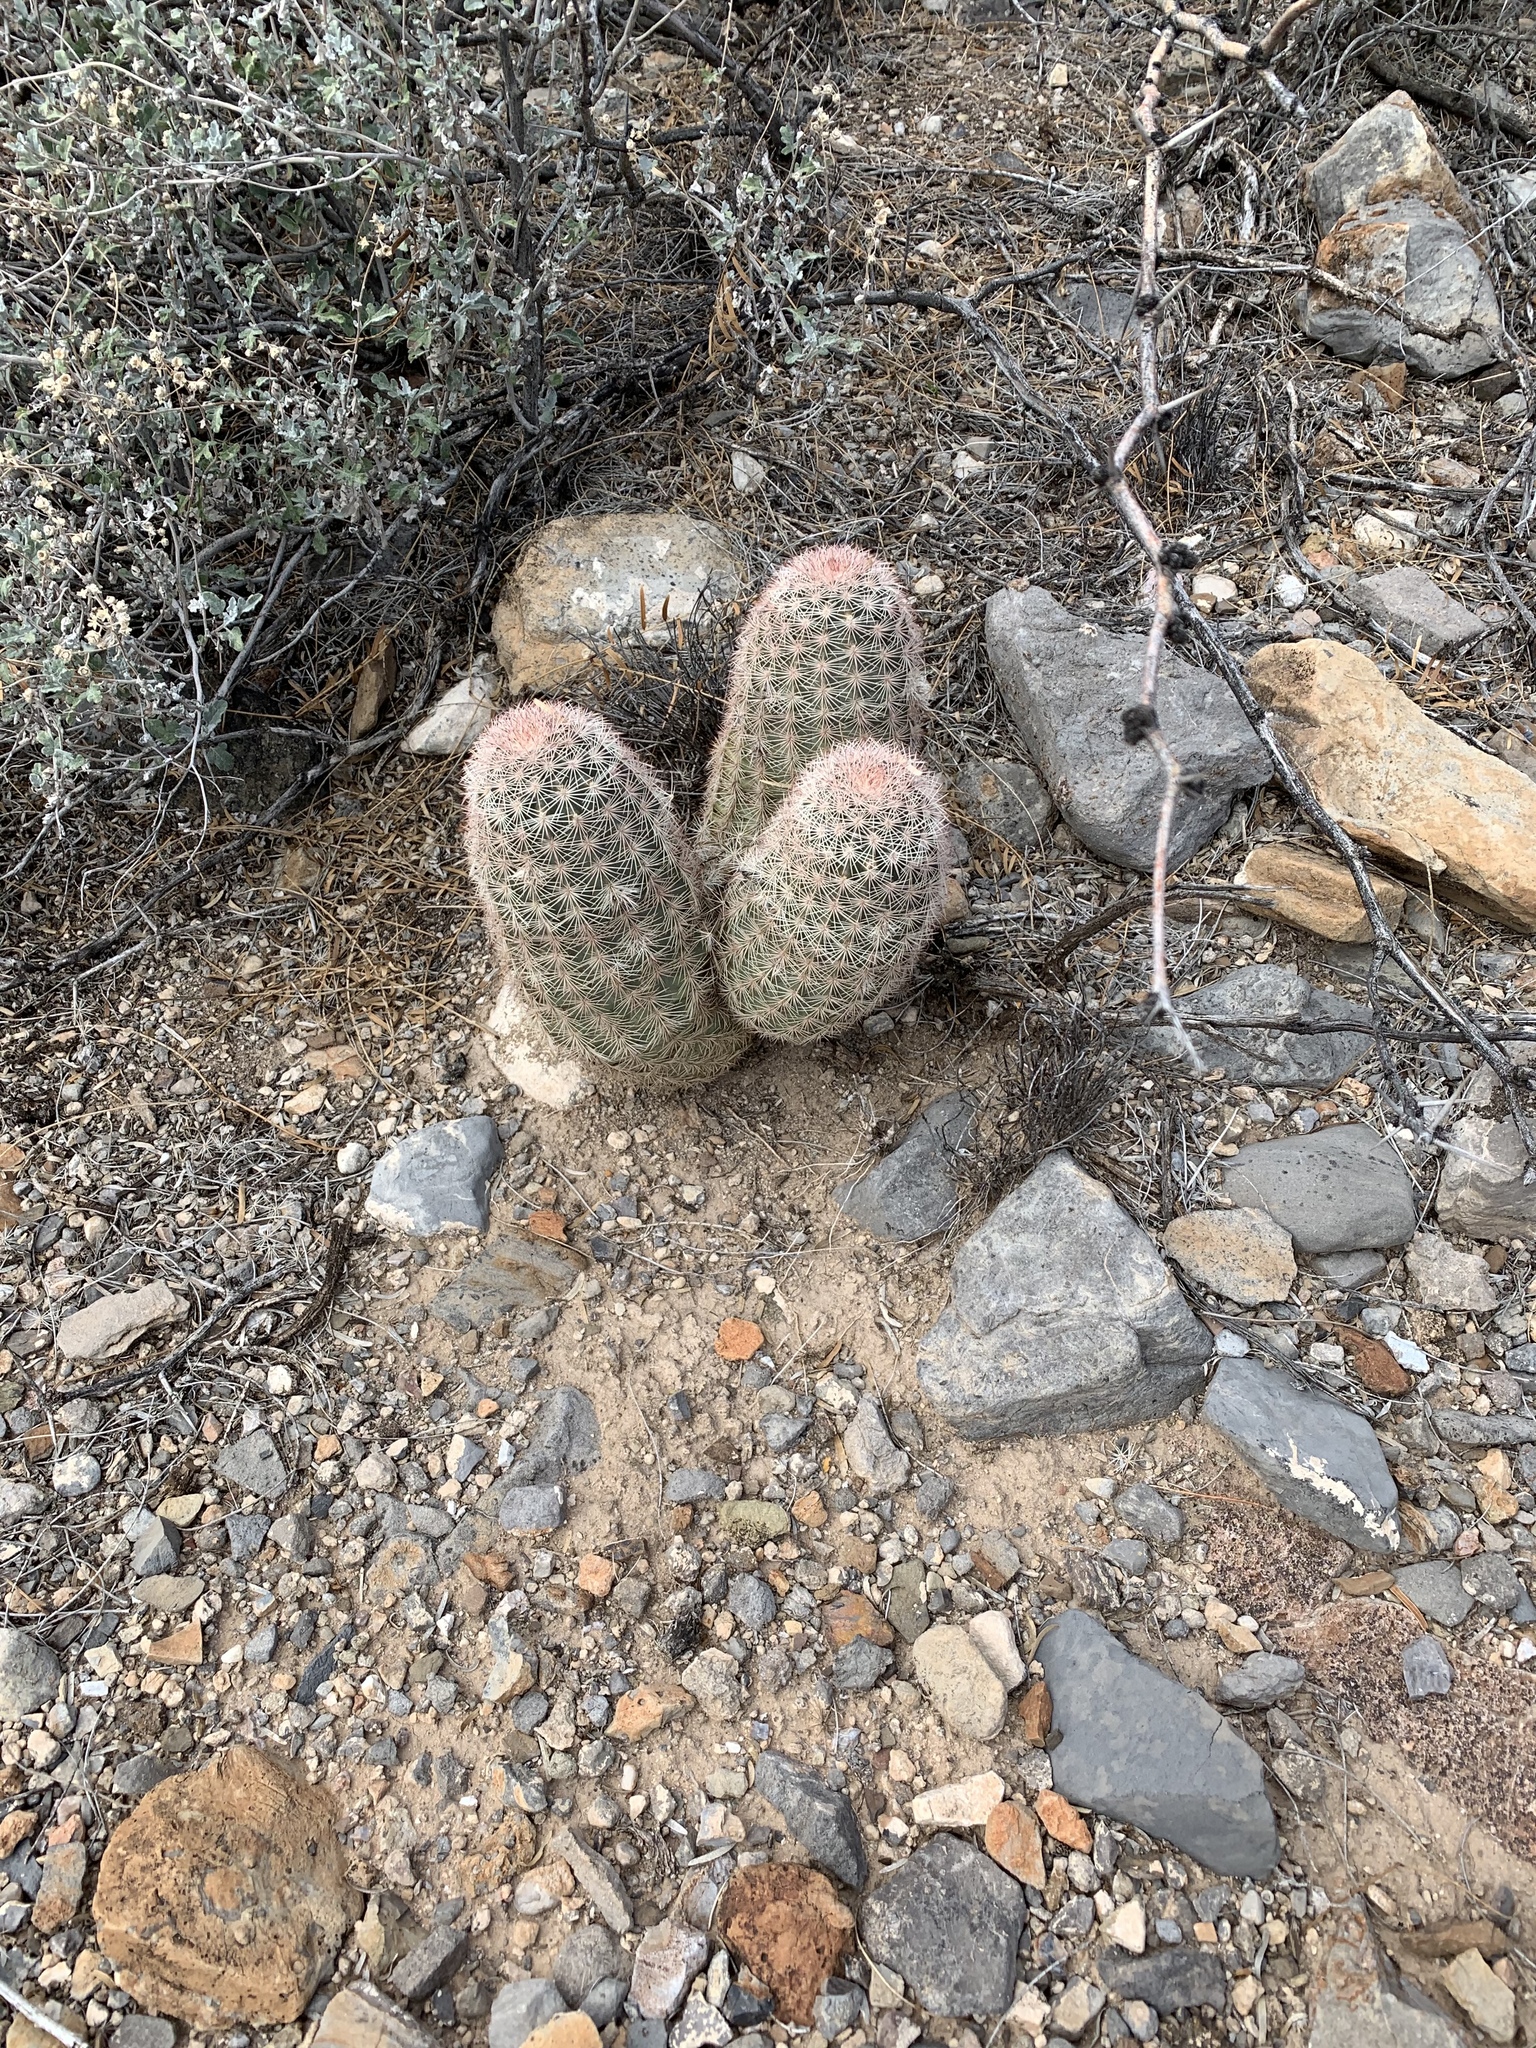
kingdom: Plantae
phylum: Tracheophyta
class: Magnoliopsida
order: Caryophyllales
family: Cactaceae
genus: Echinocereus
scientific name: Echinocereus dasyacanthus
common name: Spiny hedgehog cactus
